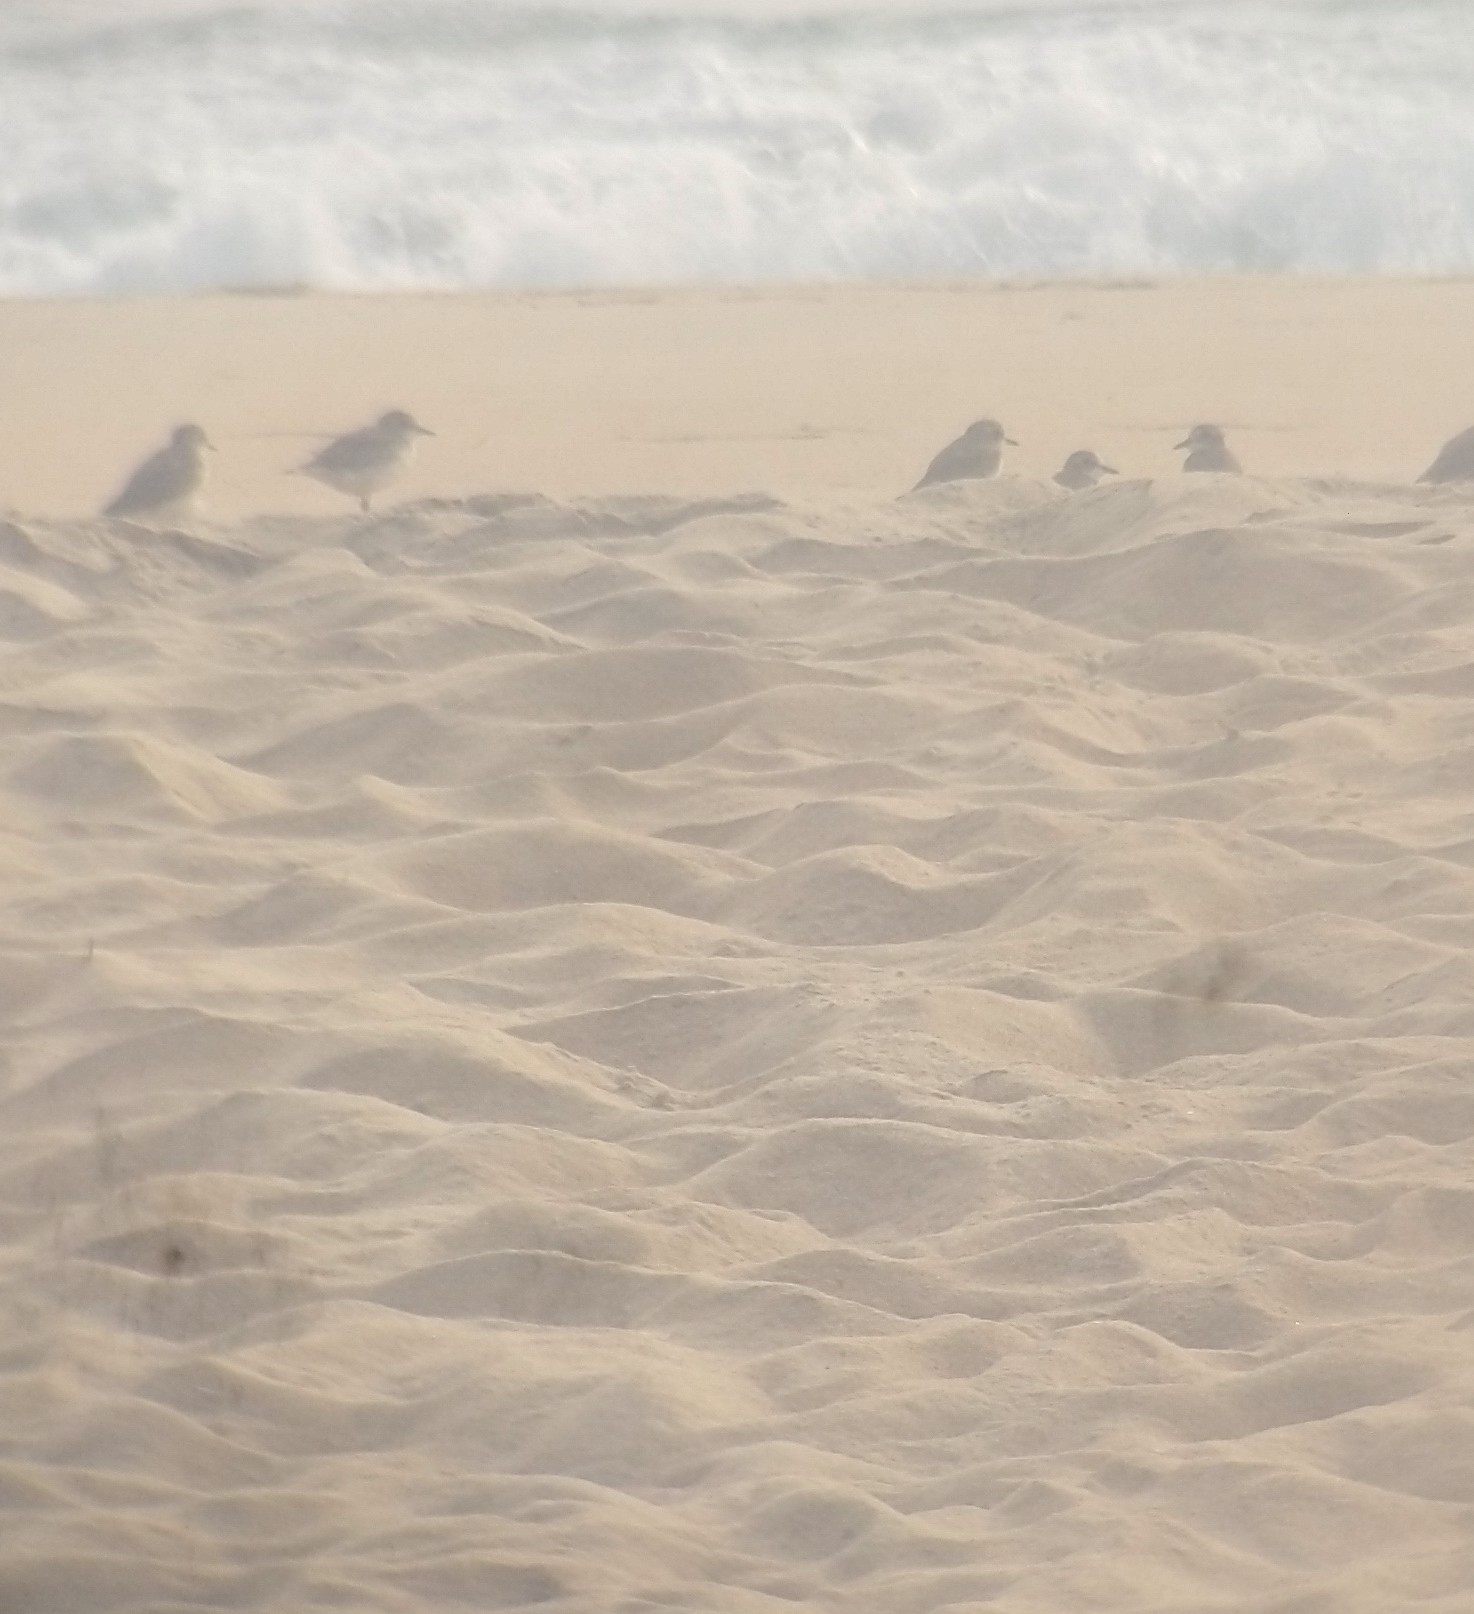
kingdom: Animalia
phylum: Chordata
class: Aves
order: Charadriiformes
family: Charadriidae
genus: Anarhynchus
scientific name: Anarhynchus
